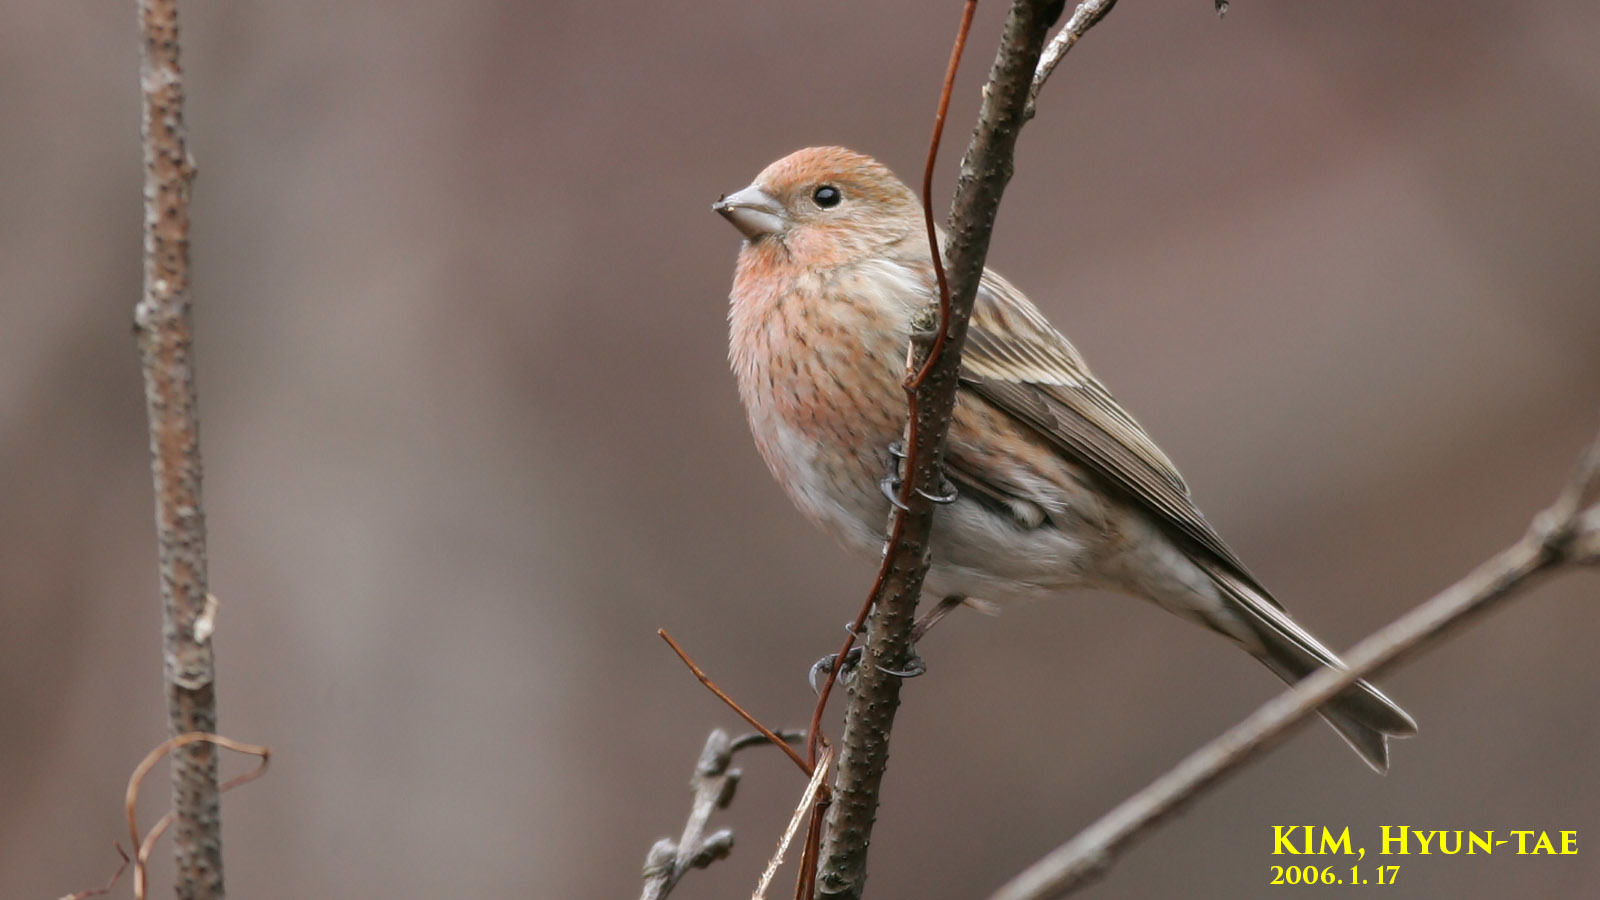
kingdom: Animalia
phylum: Chordata
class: Aves
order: Passeriformes
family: Fringillidae
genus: Carpodacus
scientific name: Carpodacus roseus
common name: Pallas's rosefinch
